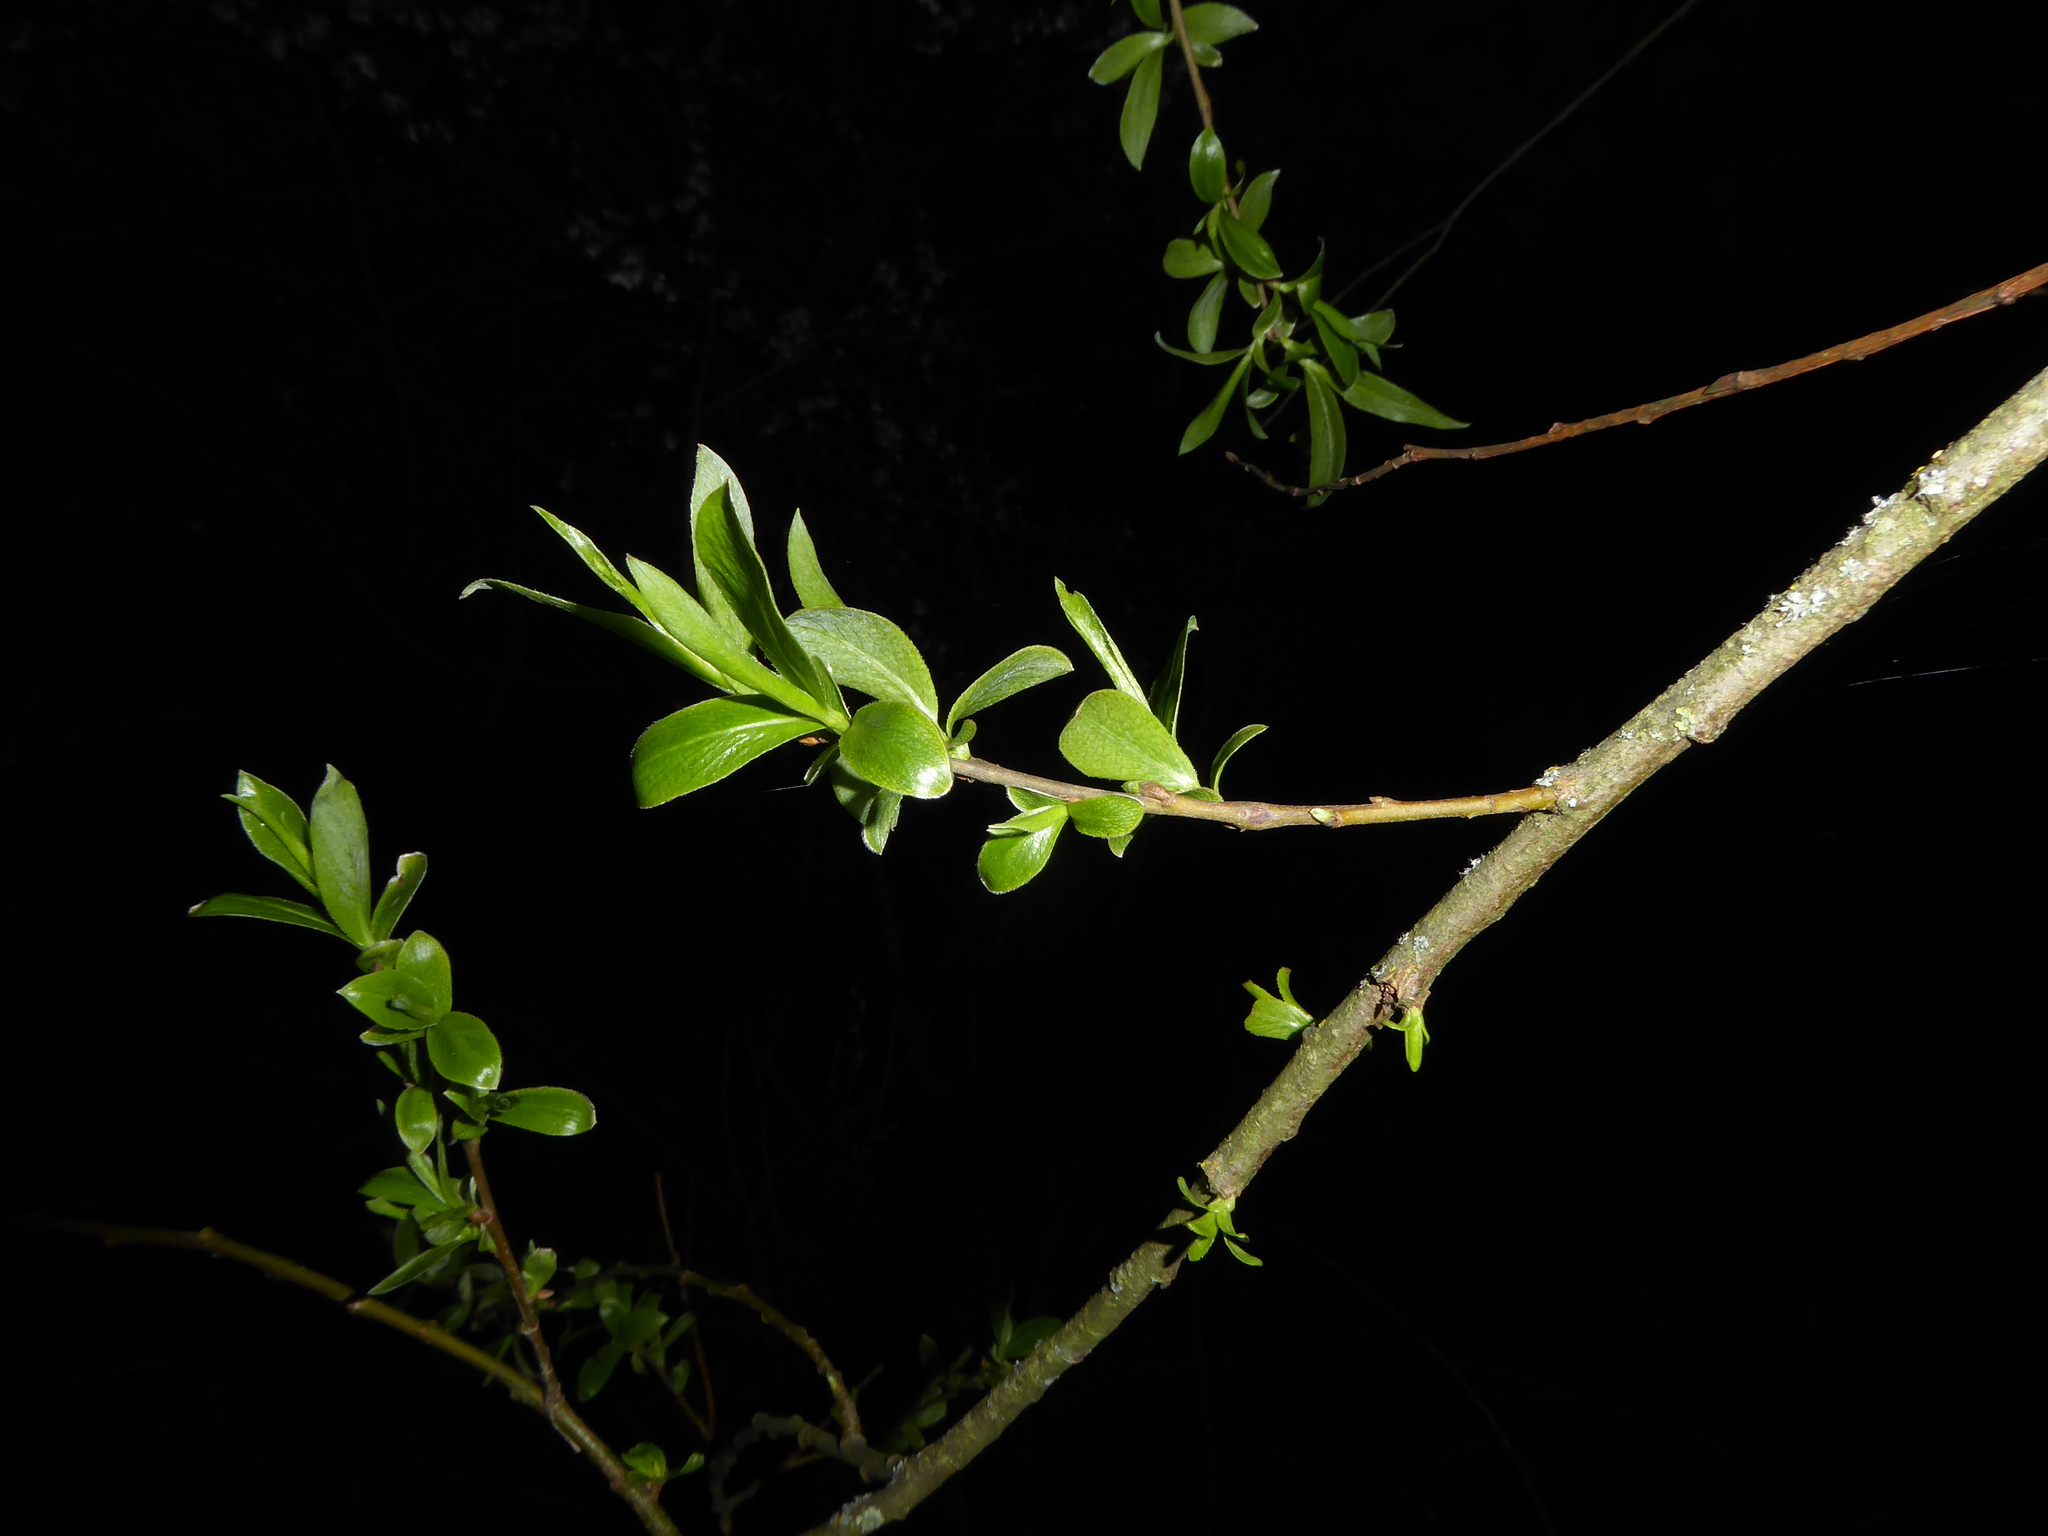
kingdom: Plantae
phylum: Tracheophyta
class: Magnoliopsida
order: Malpighiales
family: Salicaceae
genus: Salix
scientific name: Salix alba
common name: White willow
